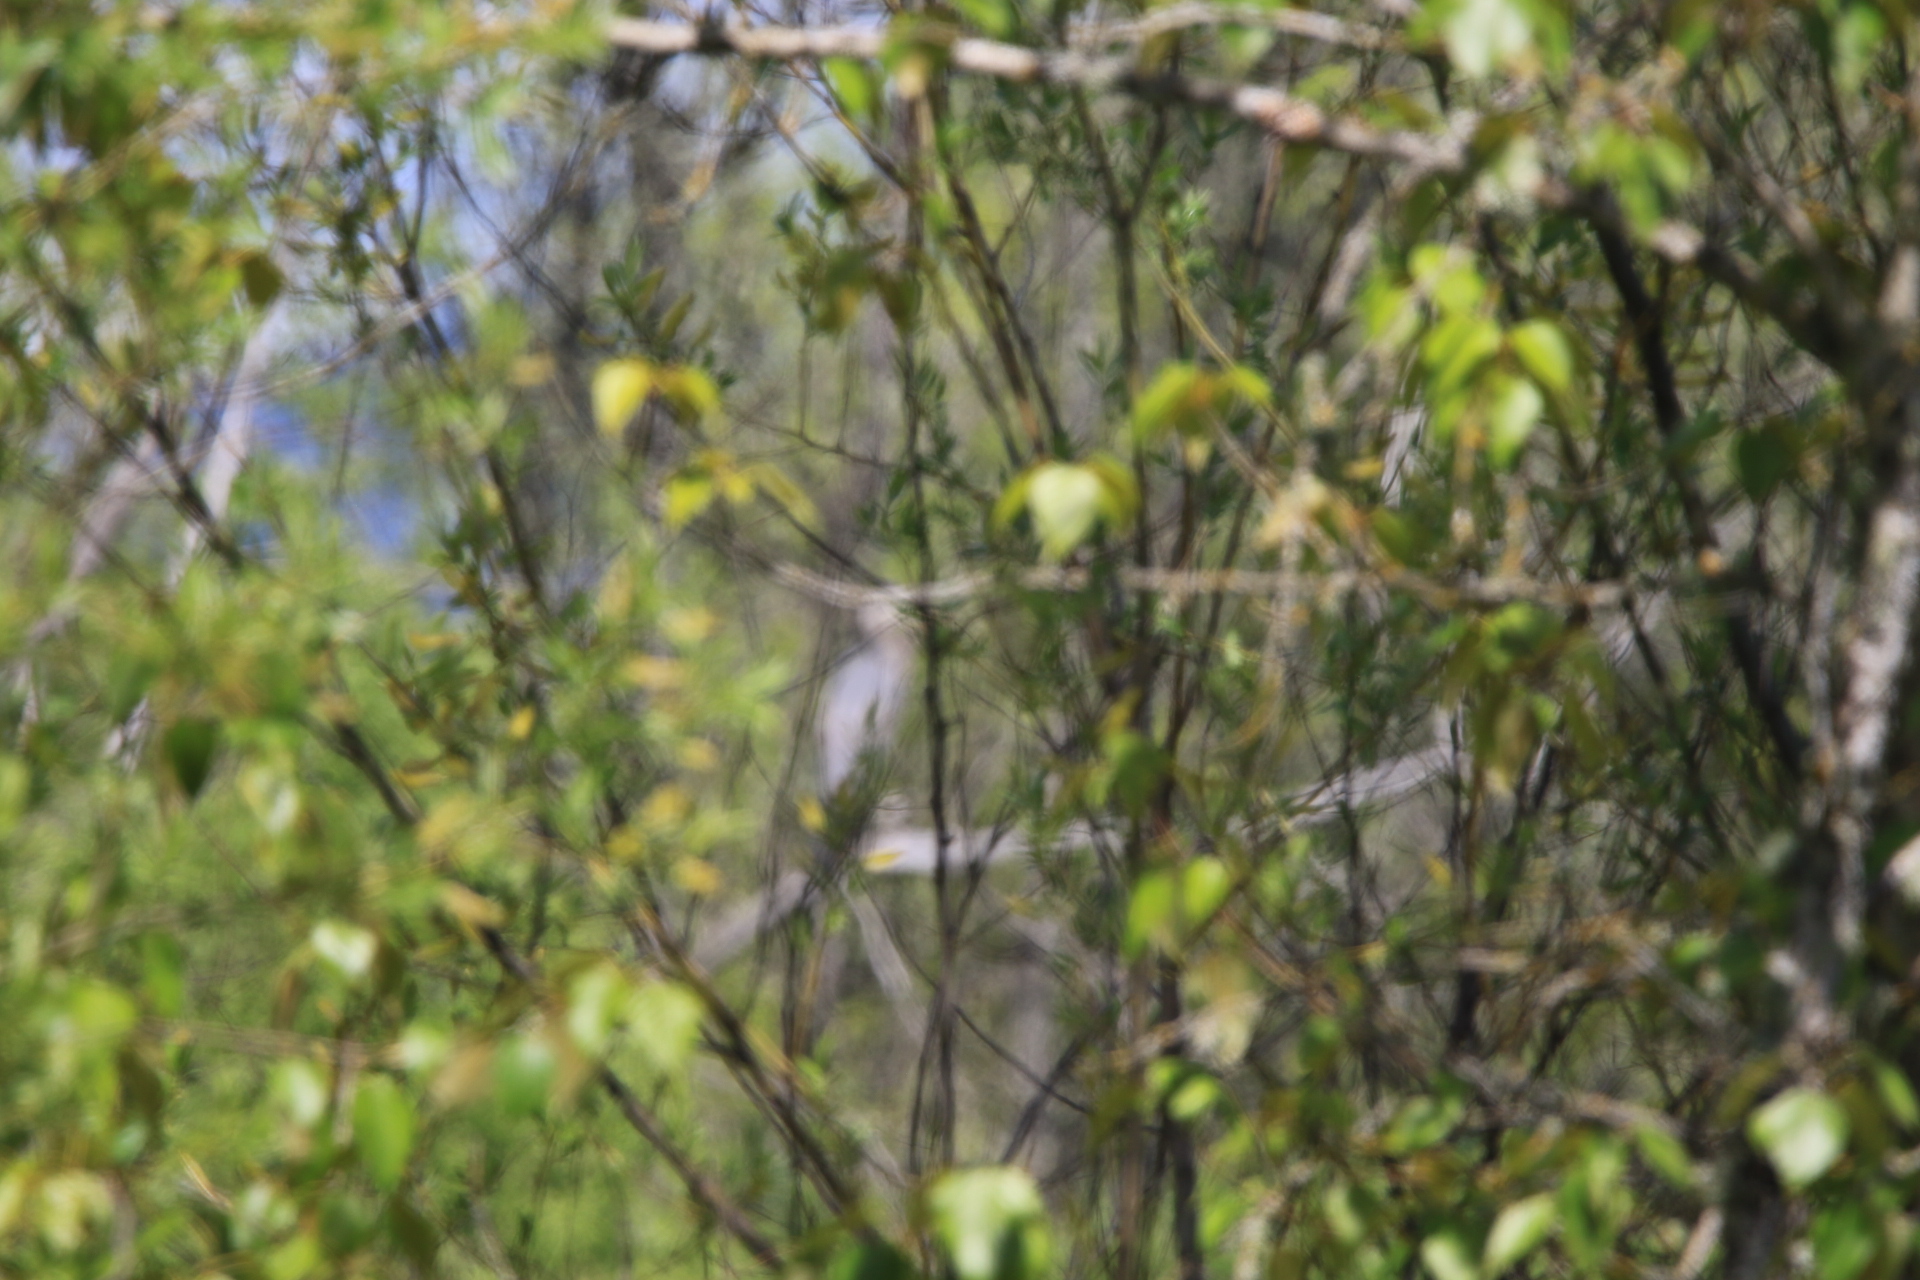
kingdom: Animalia
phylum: Chordata
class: Aves
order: Pelecaniformes
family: Ardeidae
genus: Ardea
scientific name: Ardea herodias
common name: Great blue heron
